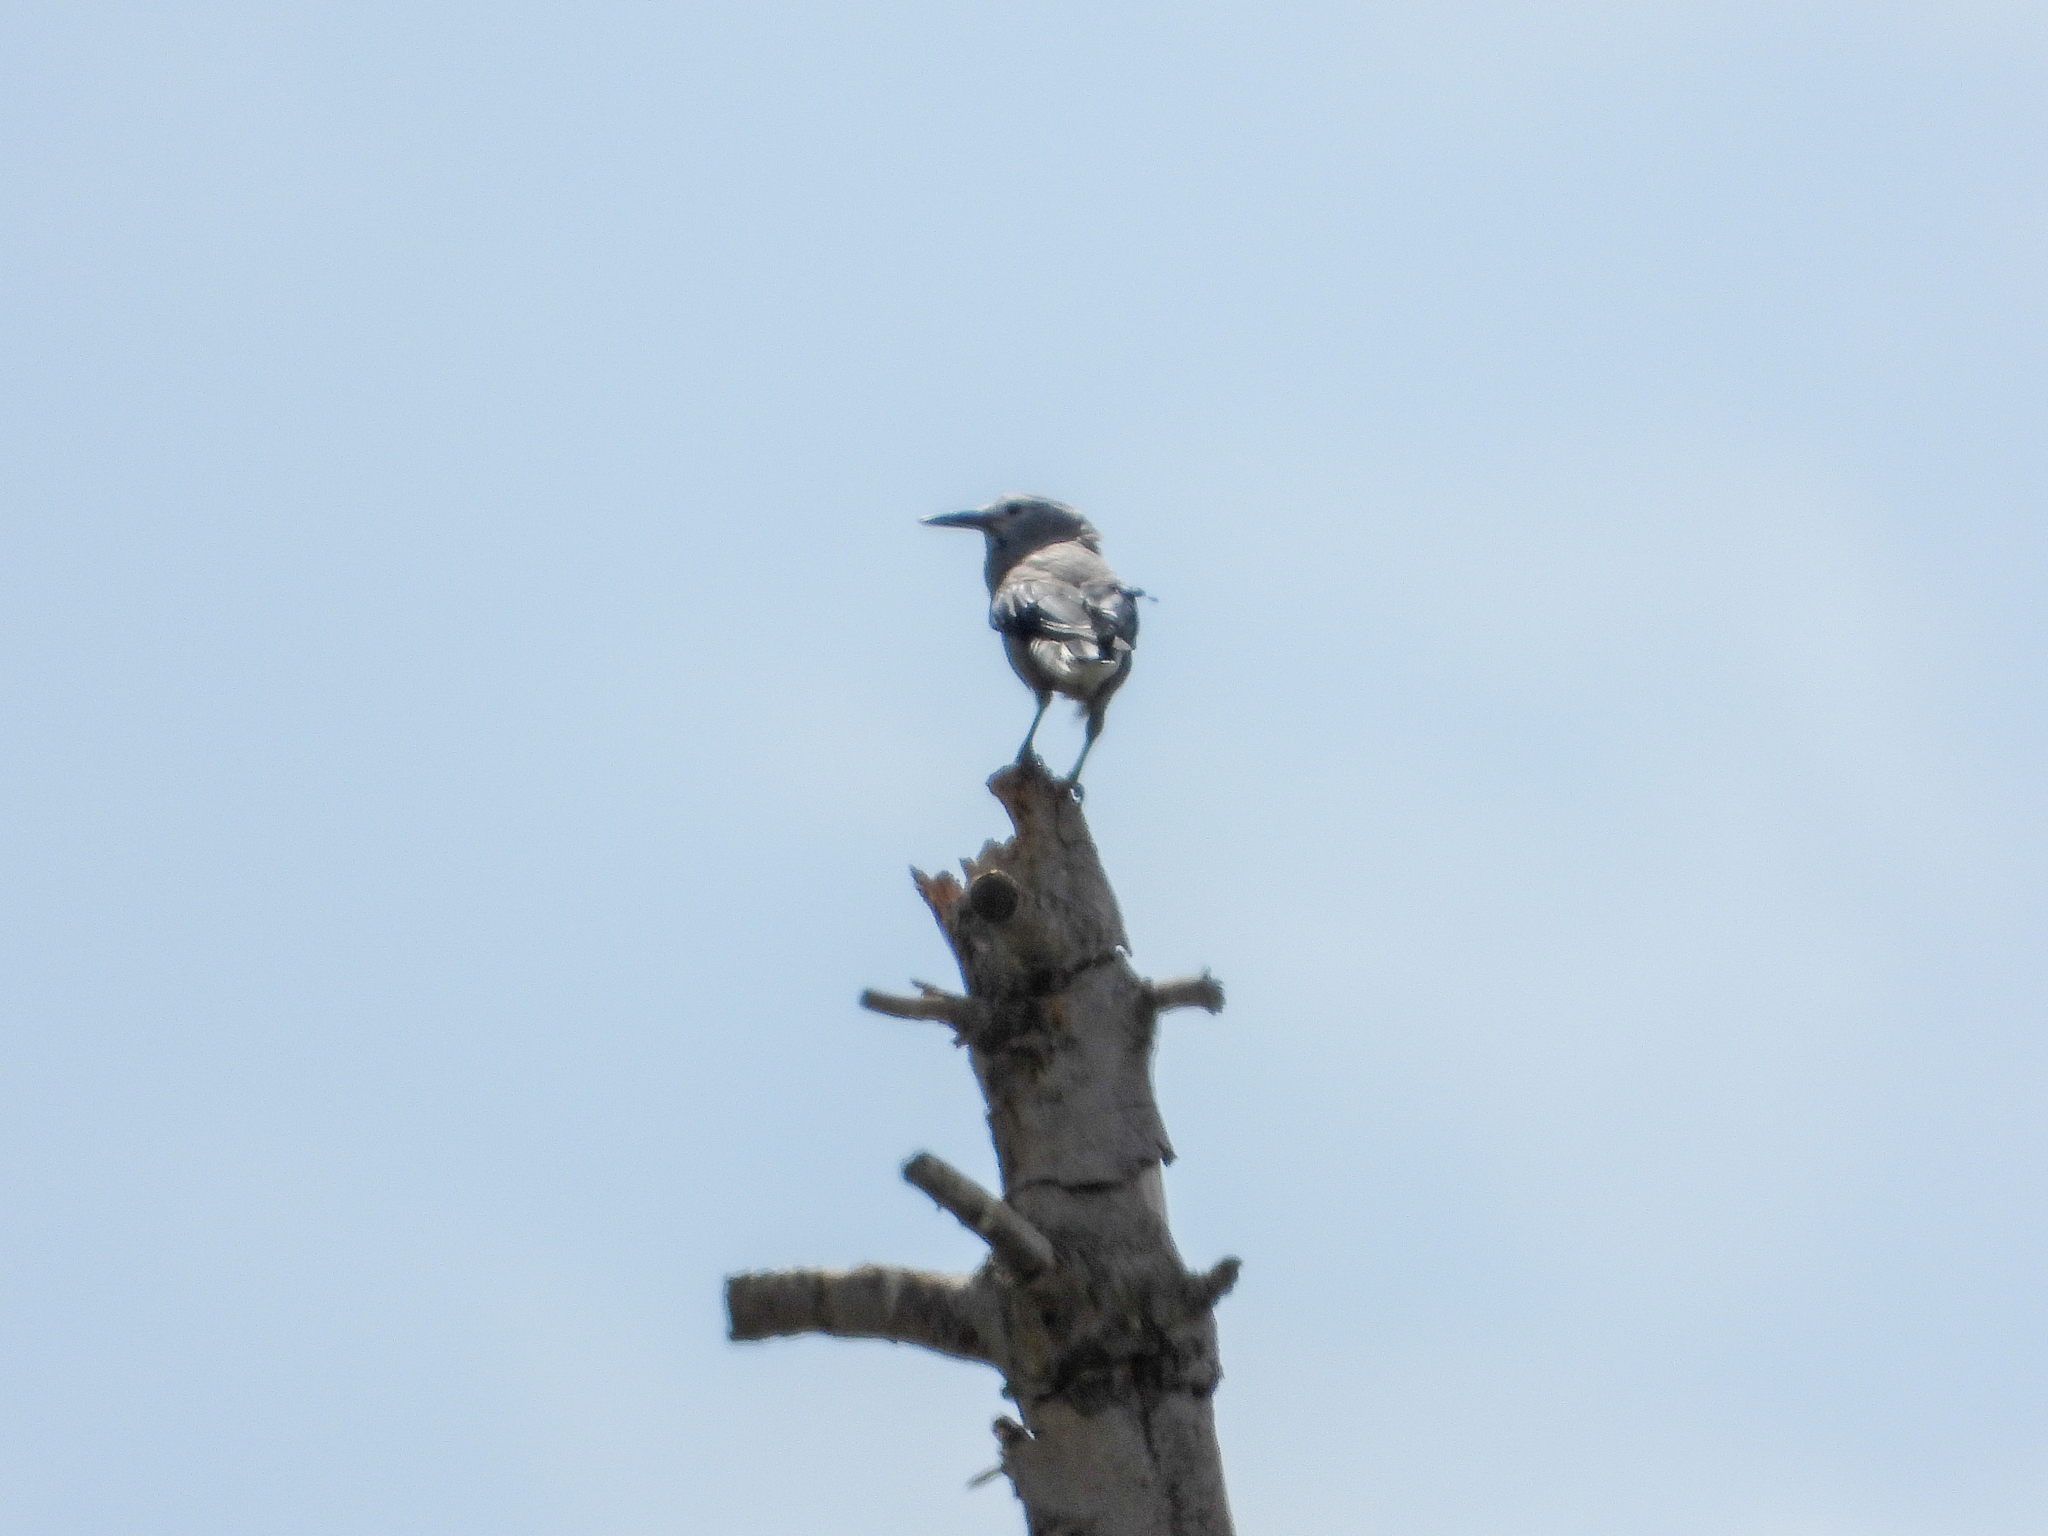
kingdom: Animalia
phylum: Chordata
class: Aves
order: Passeriformes
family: Corvidae
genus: Nucifraga
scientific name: Nucifraga columbiana
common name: Clark's nutcracker
